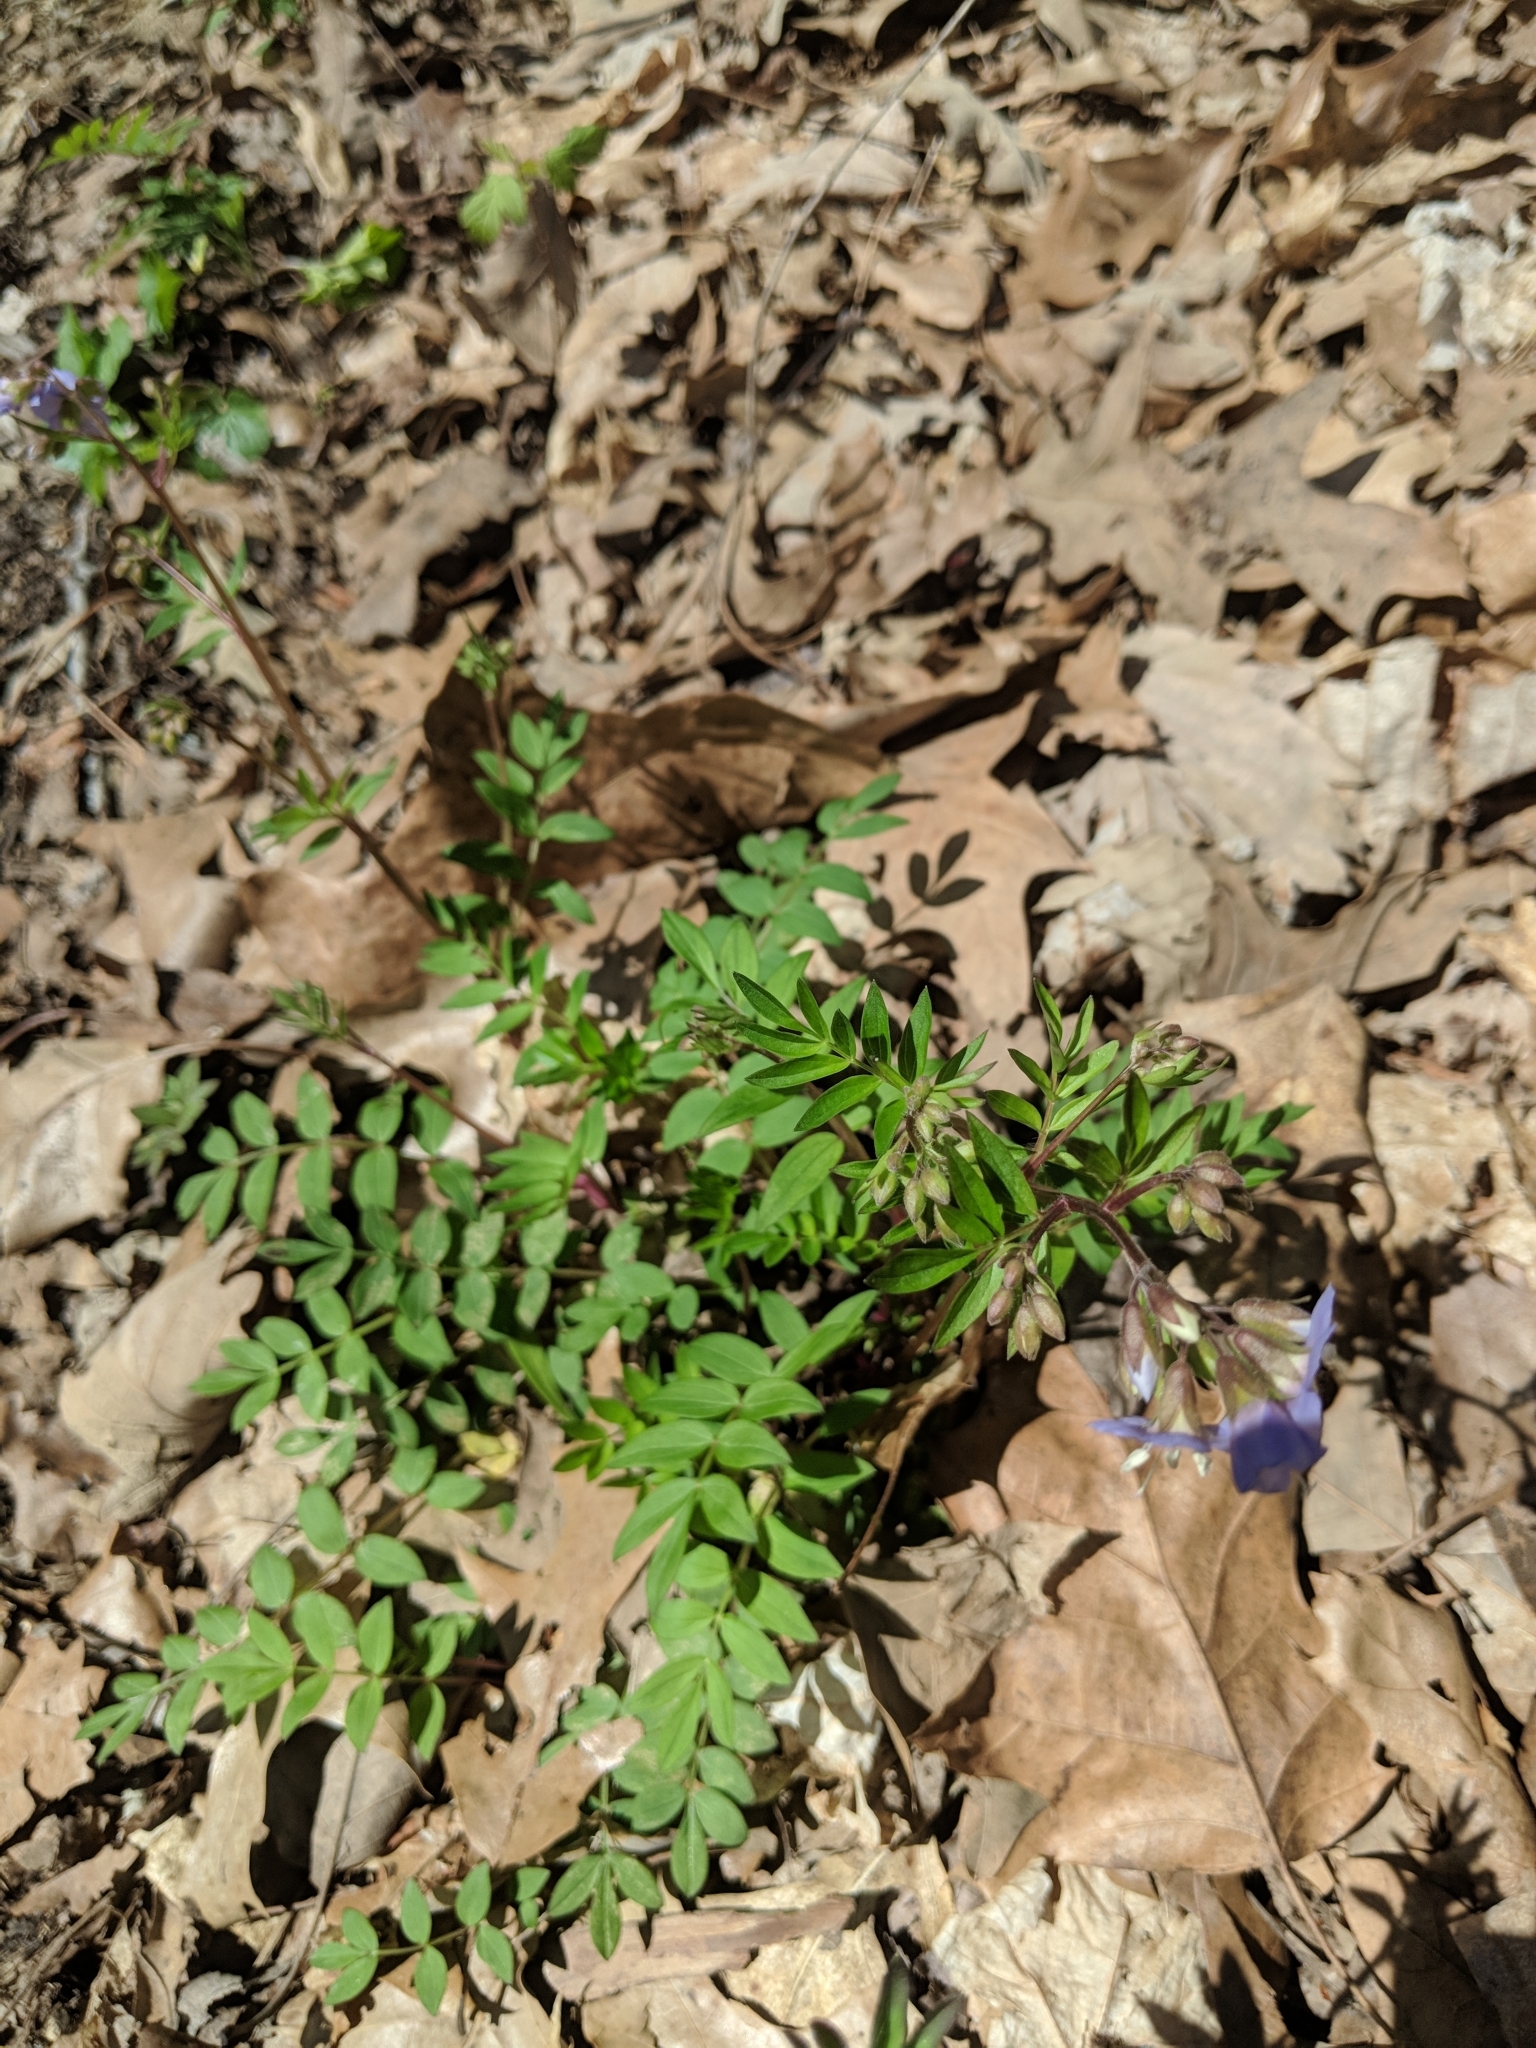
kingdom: Plantae
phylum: Tracheophyta
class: Magnoliopsida
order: Ericales
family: Polemoniaceae
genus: Polemonium
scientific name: Polemonium reptans
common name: Creeping jacob's-ladder
